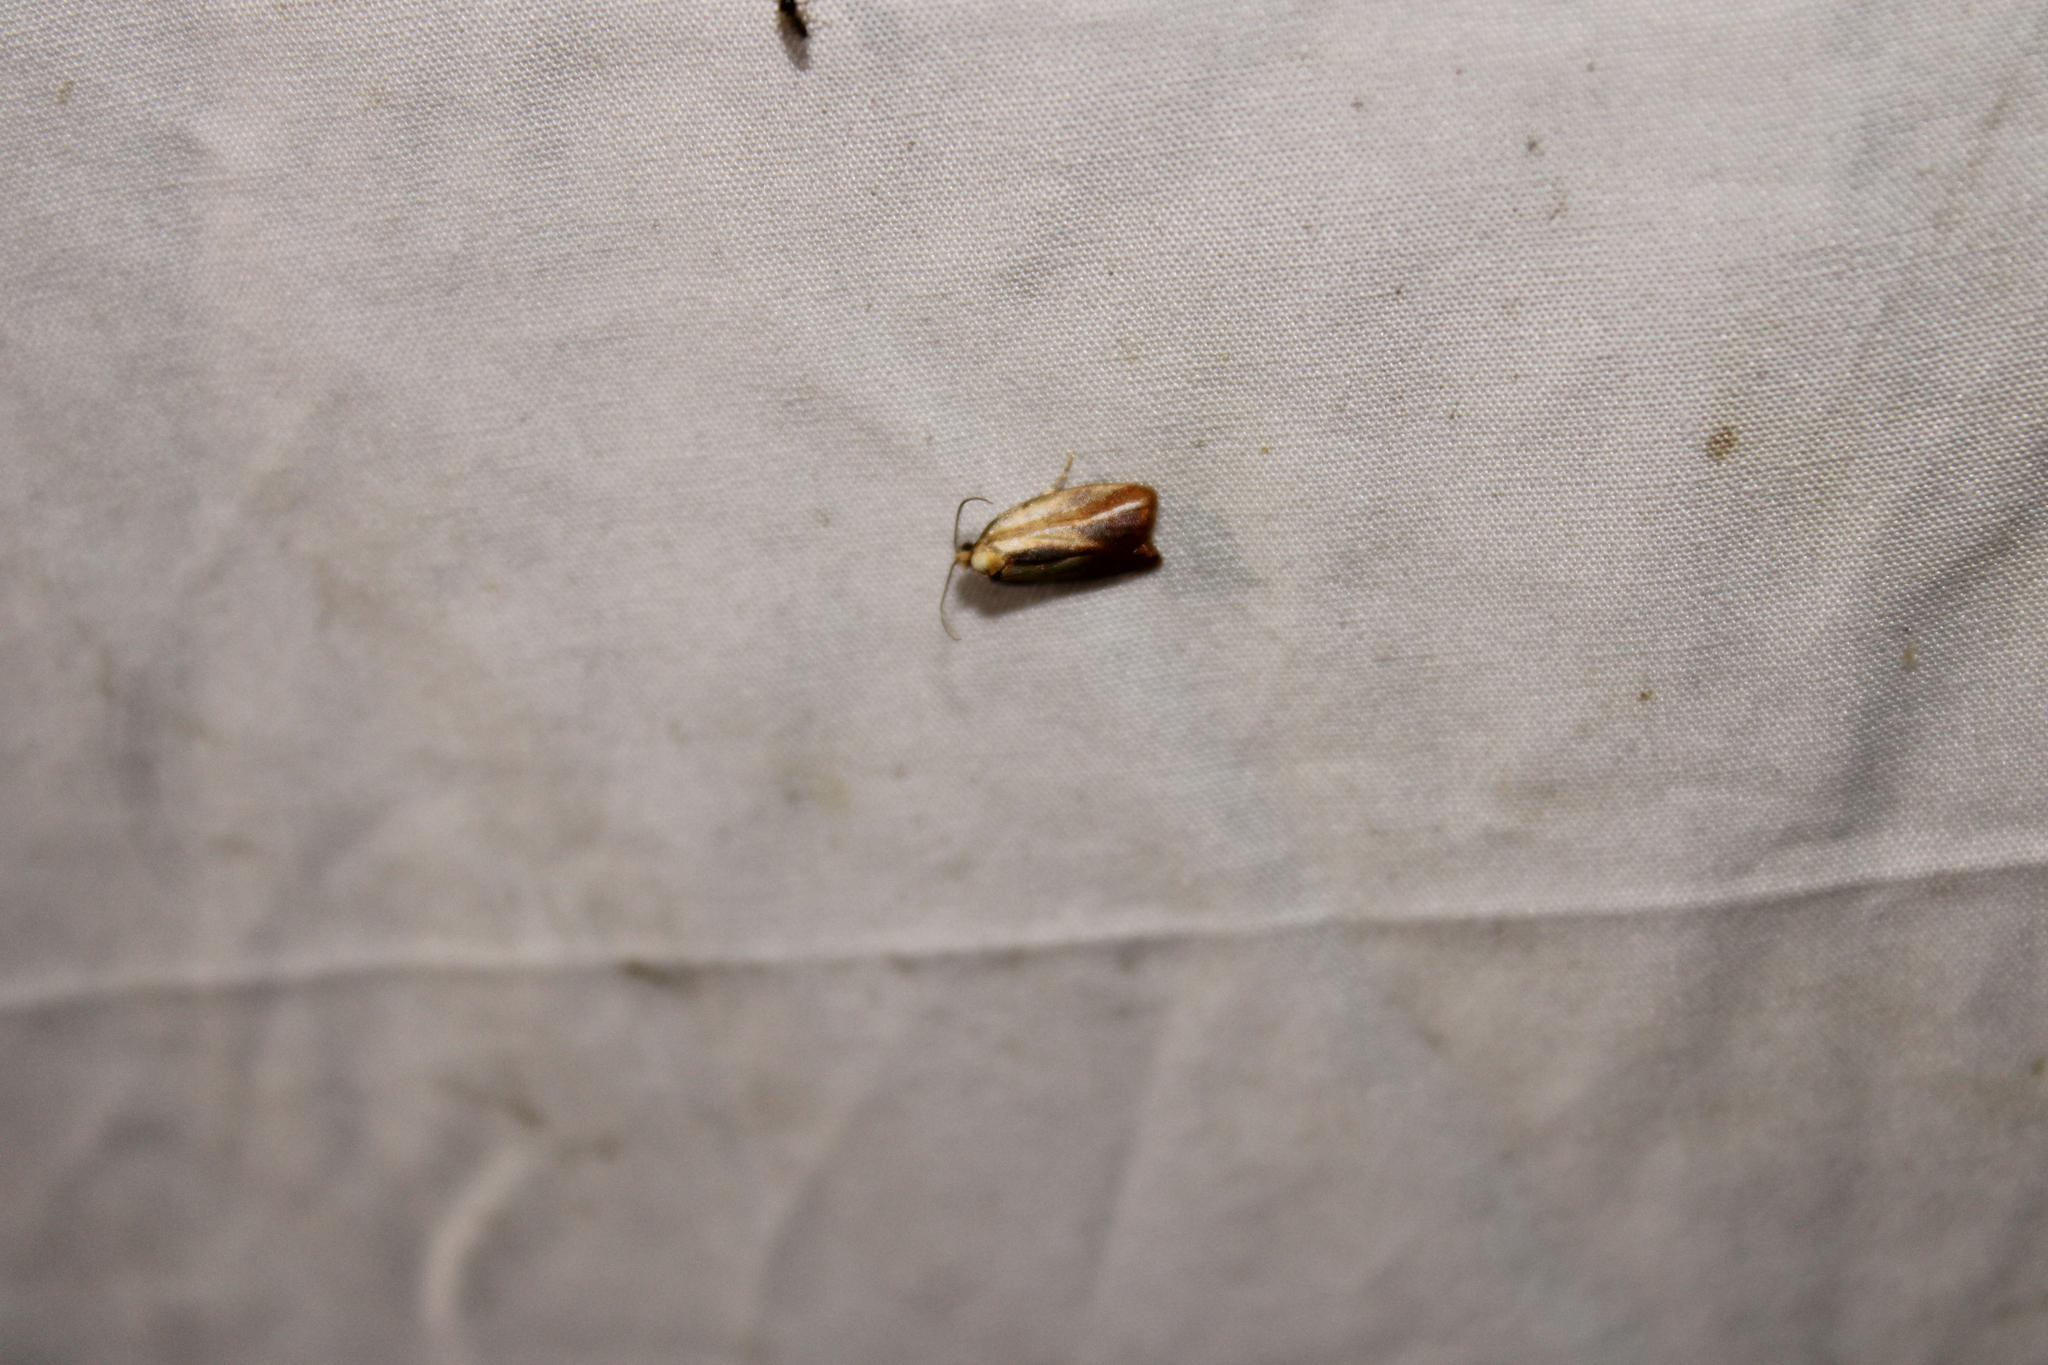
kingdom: Animalia
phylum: Arthropoda
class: Insecta
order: Lepidoptera
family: Tortricidae
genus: Acleris
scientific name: Acleris variana
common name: Eastern black-headed budworm moth
